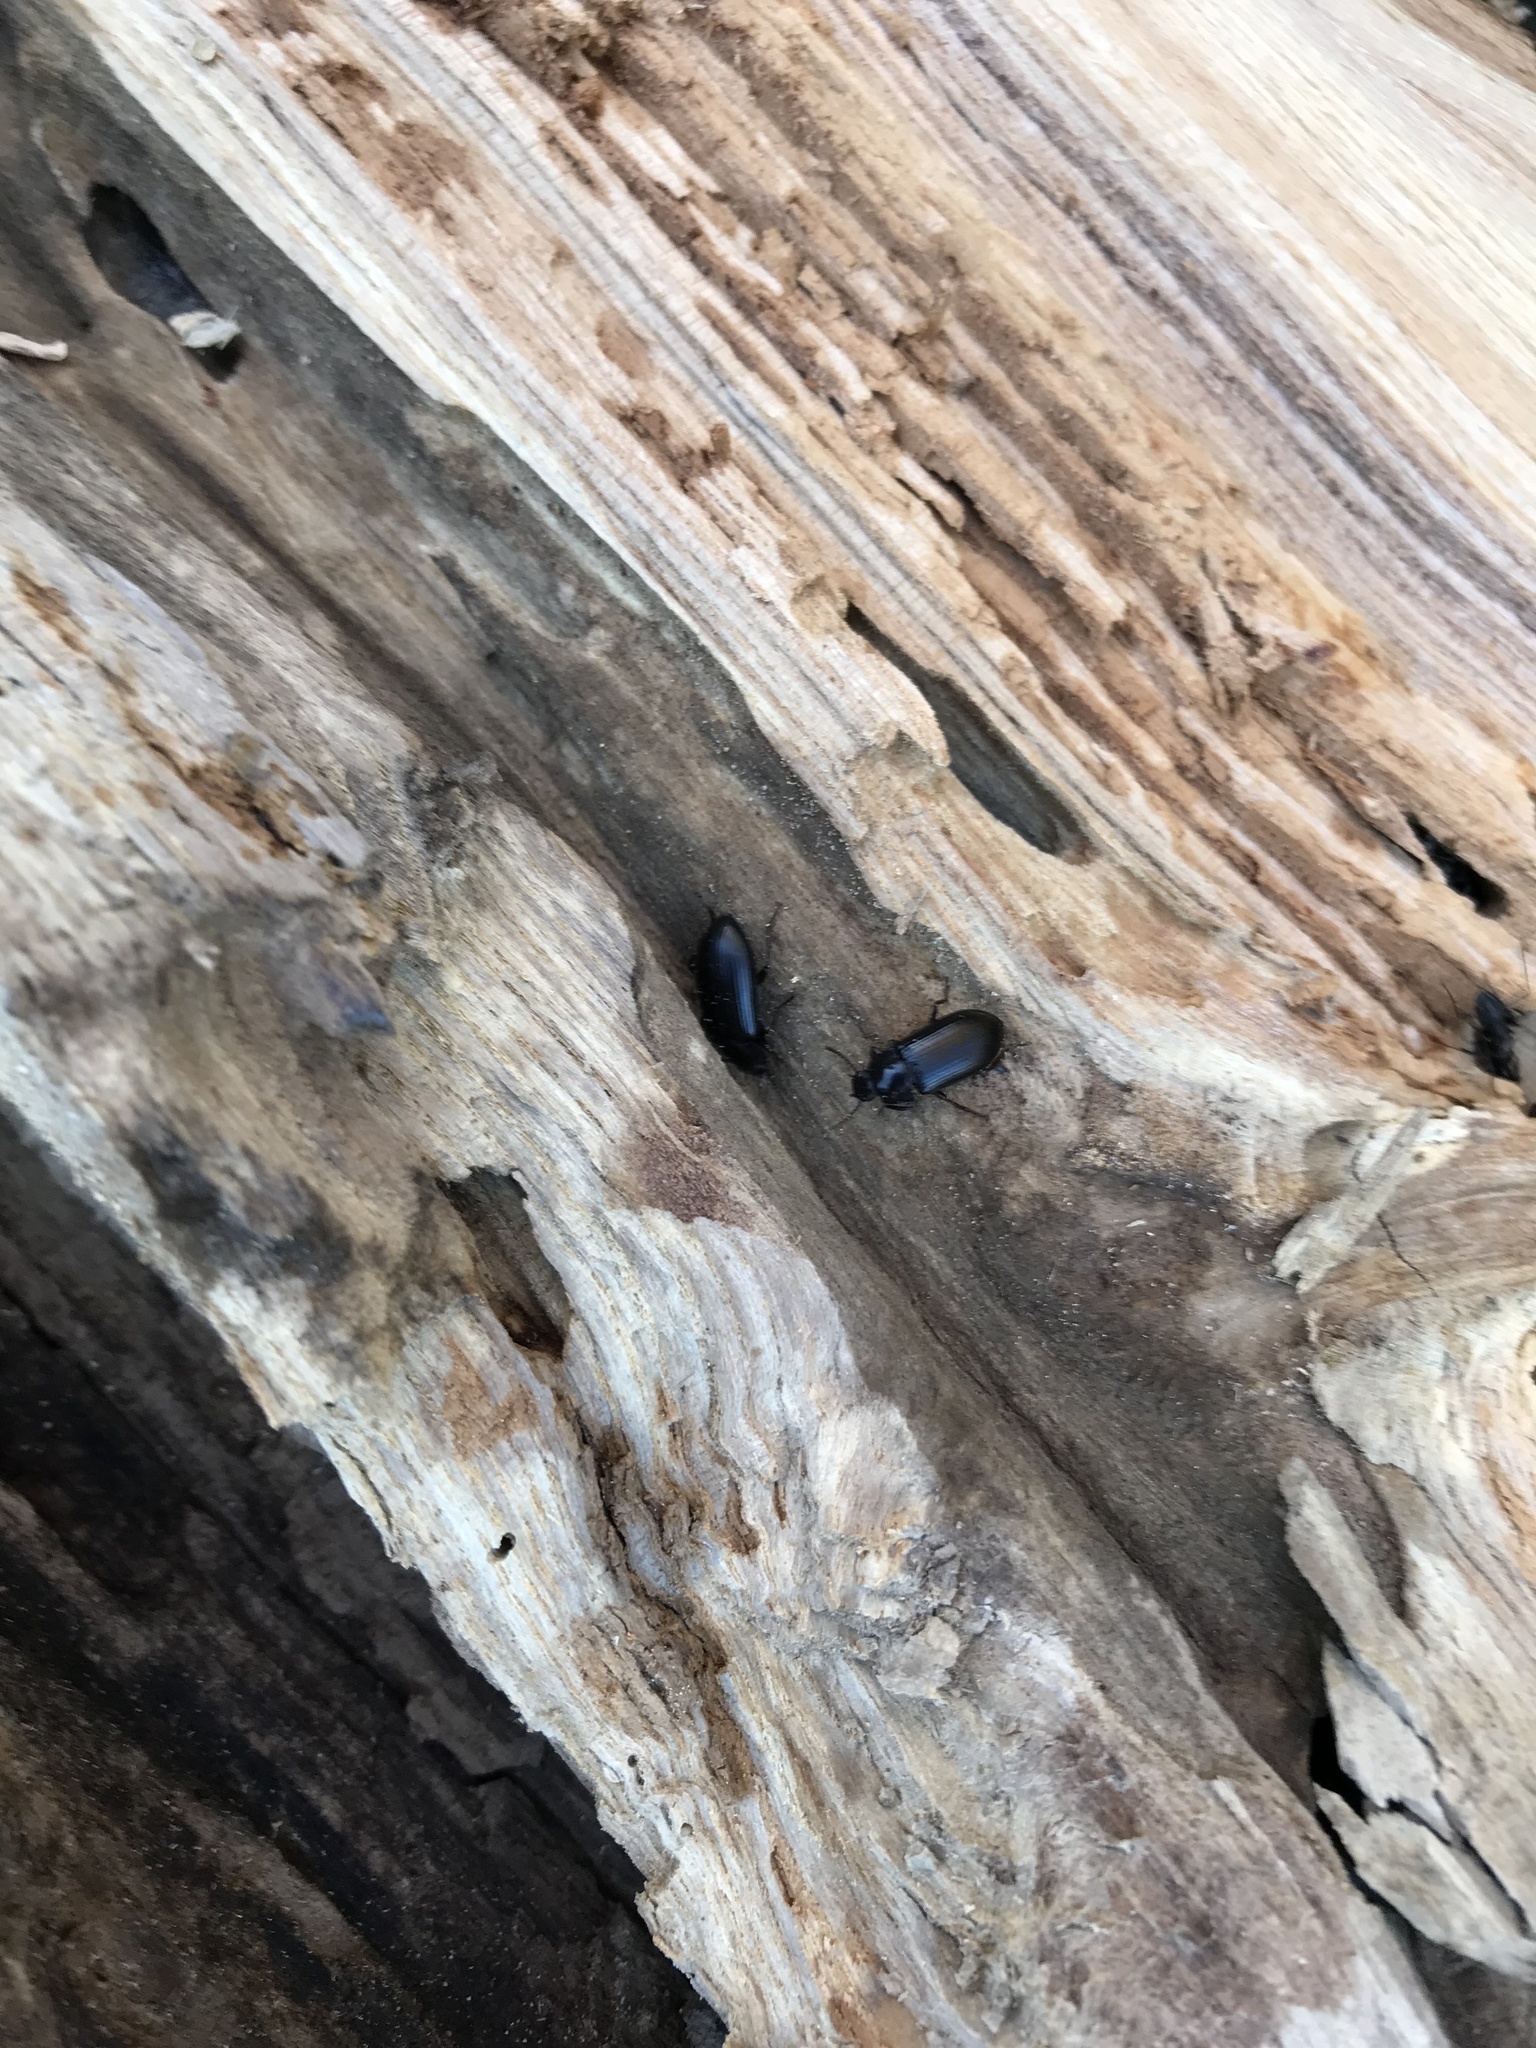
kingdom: Animalia
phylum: Arthropoda
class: Insecta
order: Coleoptera
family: Tenebrionidae
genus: Centronopus
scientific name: Centronopus calcaratus
